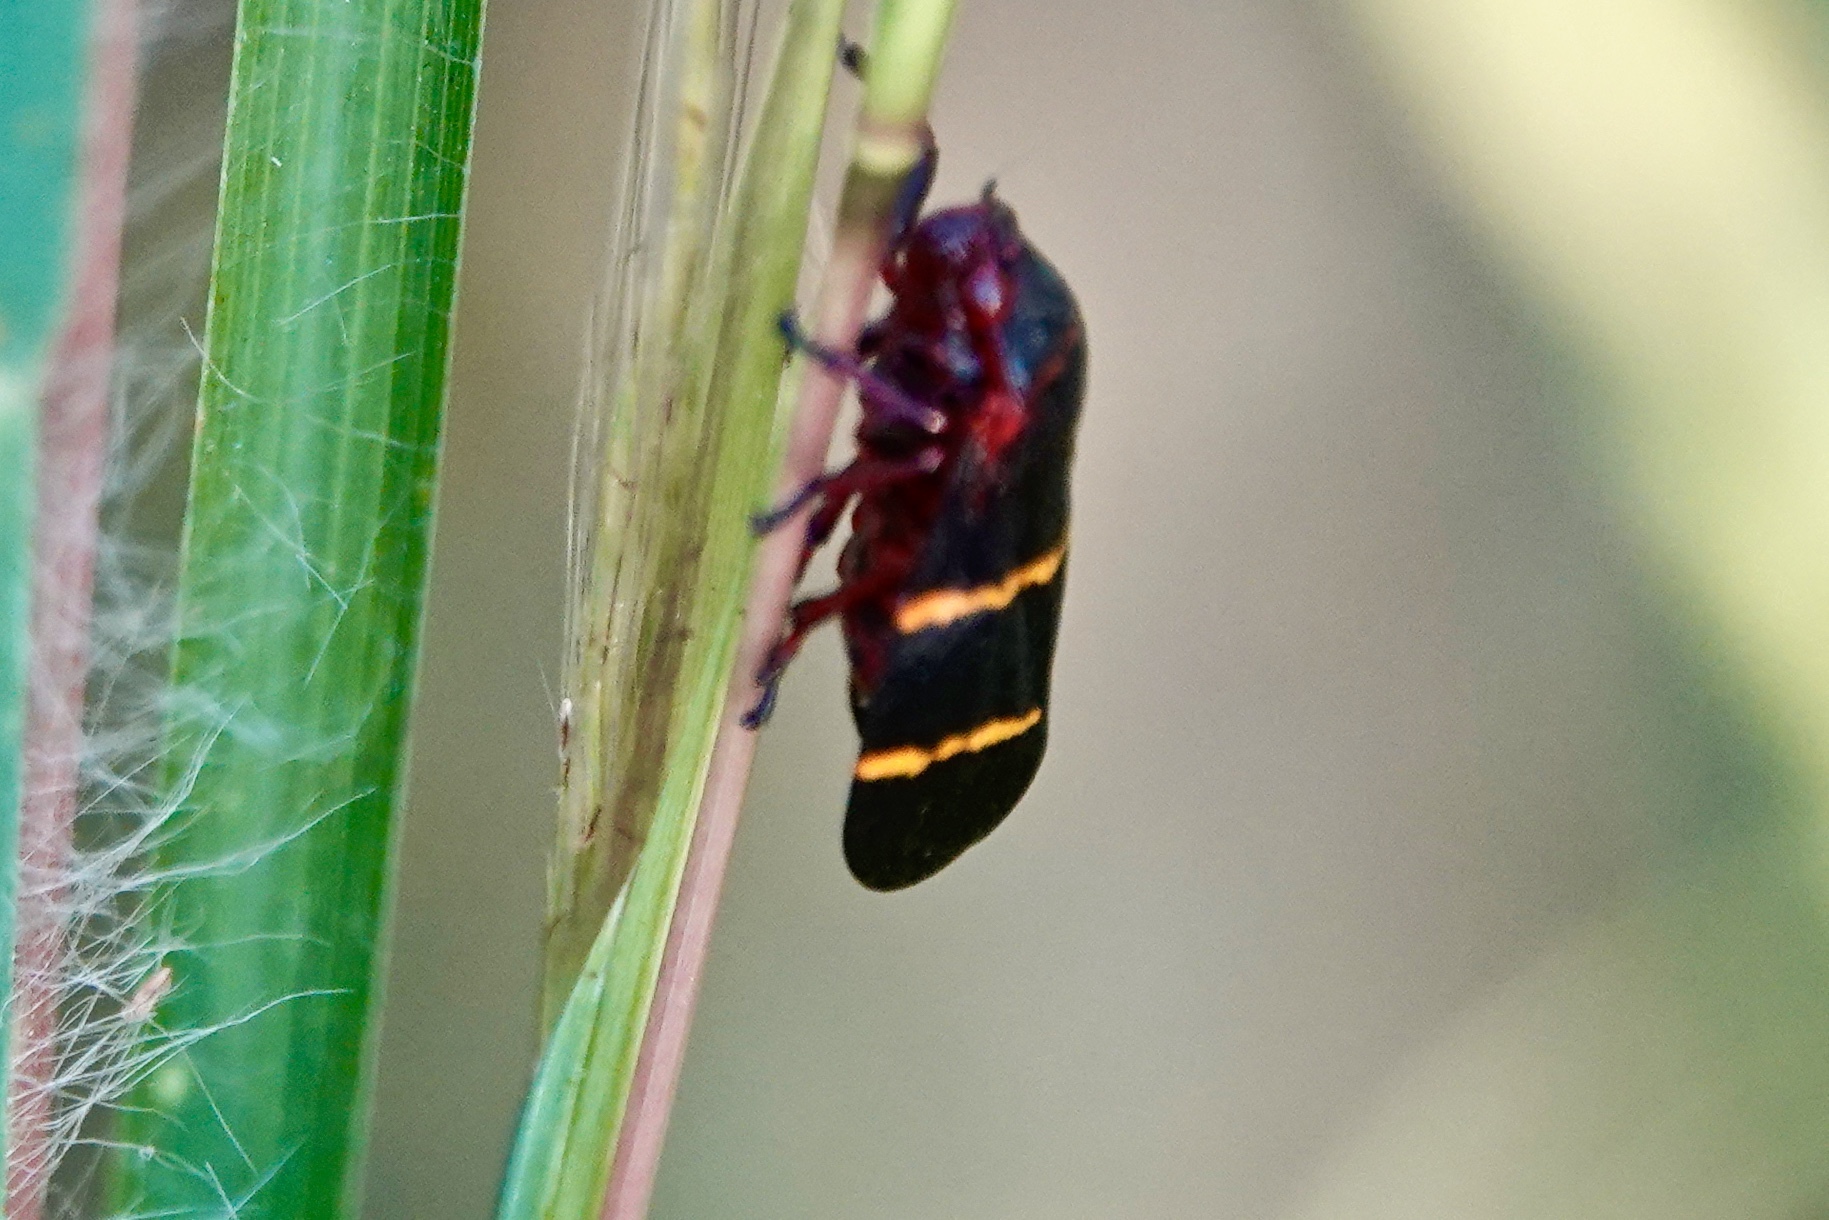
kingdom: Animalia
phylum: Arthropoda
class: Insecta
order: Hemiptera
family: Cercopidae
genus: Prosapia
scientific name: Prosapia bicincta
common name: Twolined spittlebug
